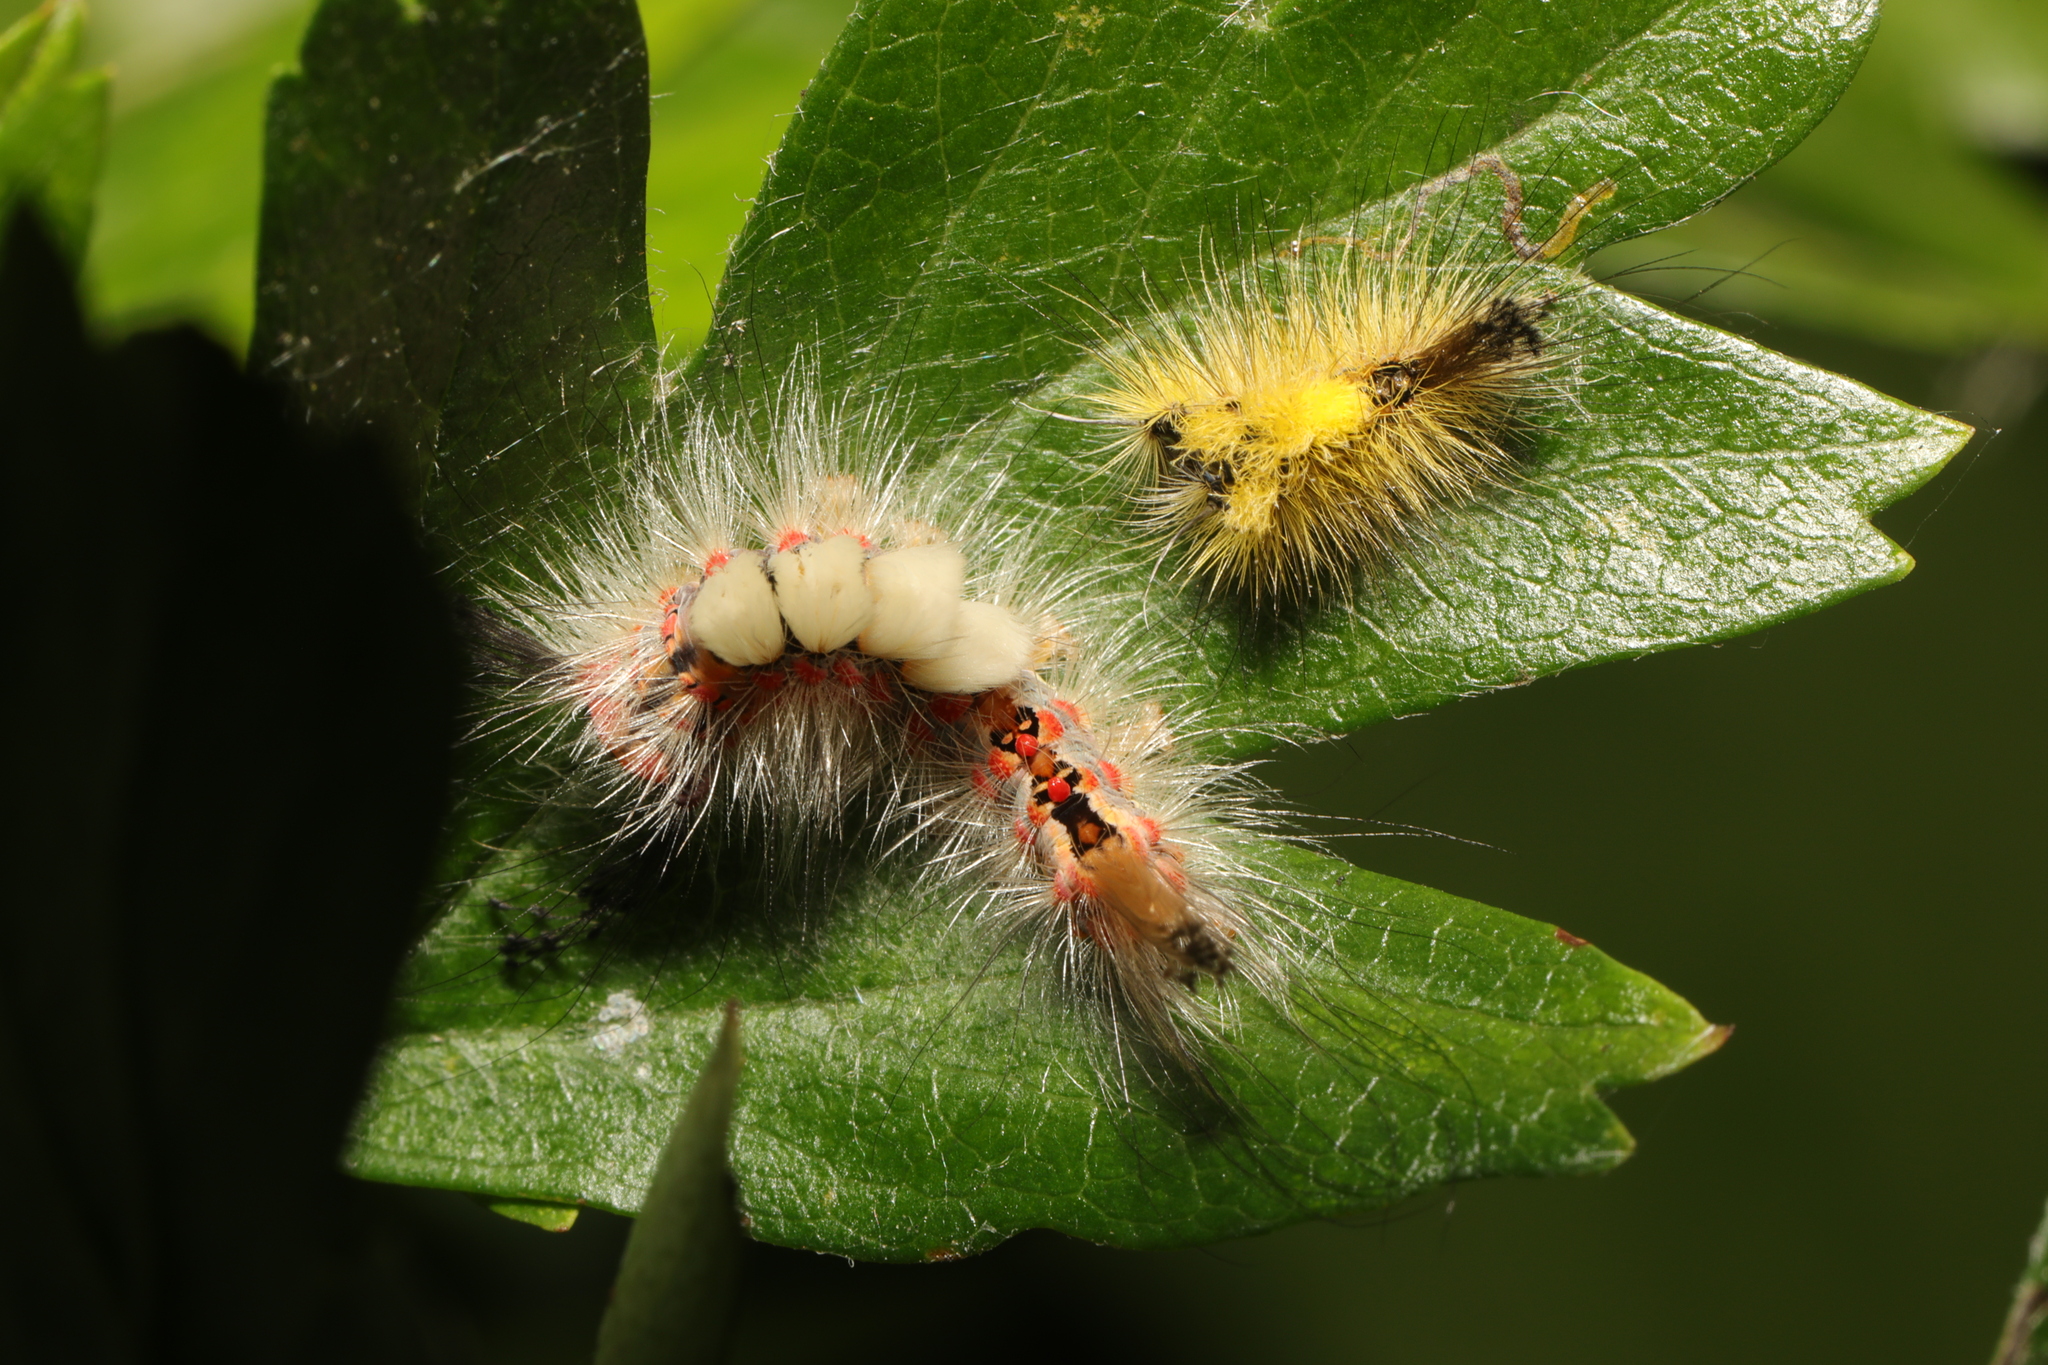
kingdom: Animalia
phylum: Arthropoda
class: Insecta
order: Lepidoptera
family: Erebidae
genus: Orgyia
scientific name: Orgyia antiqua
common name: Vapourer
